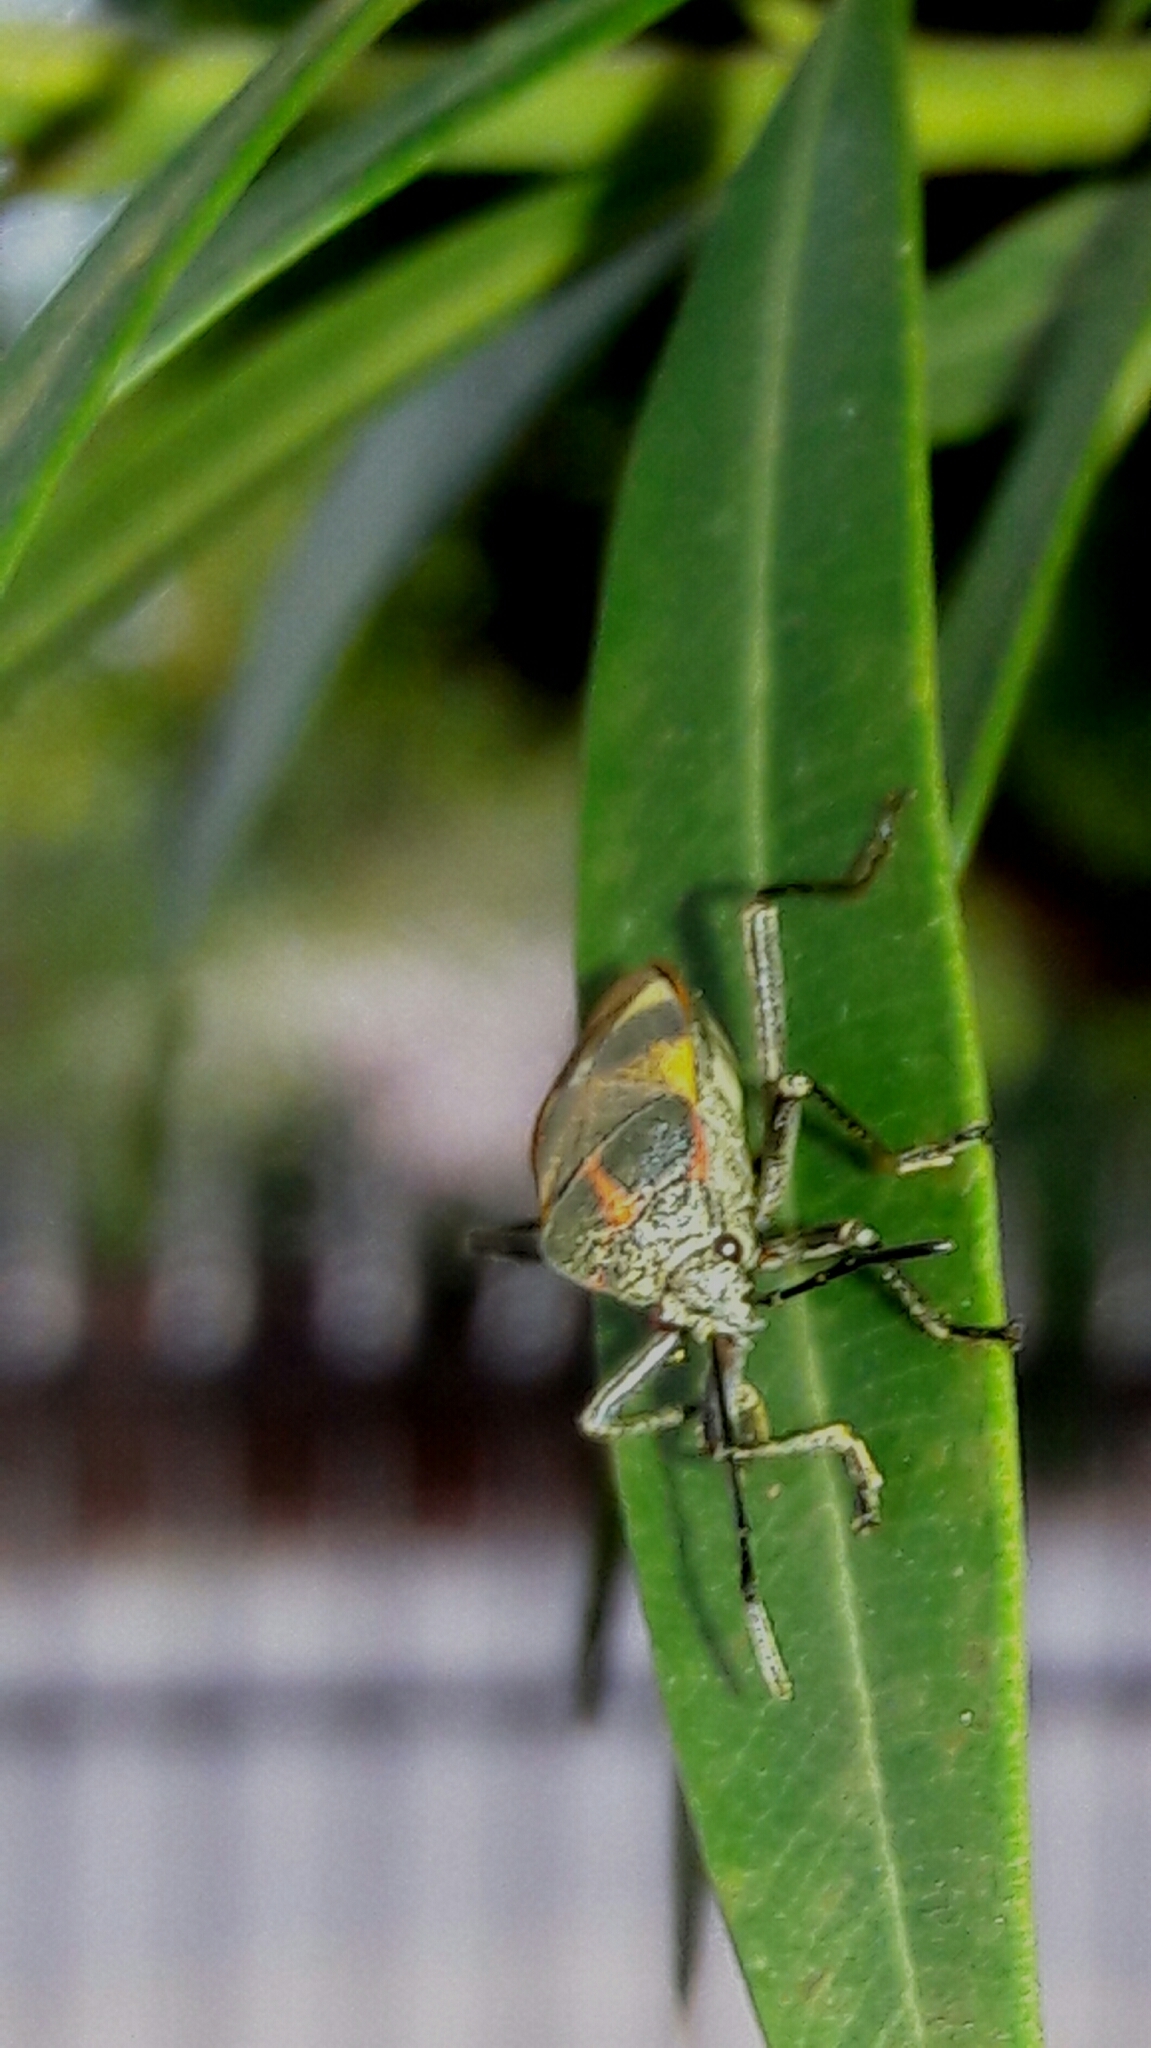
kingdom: Animalia
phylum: Arthropoda
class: Insecta
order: Hemiptera
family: Largidae
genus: Largus
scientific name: Largus ceblini
